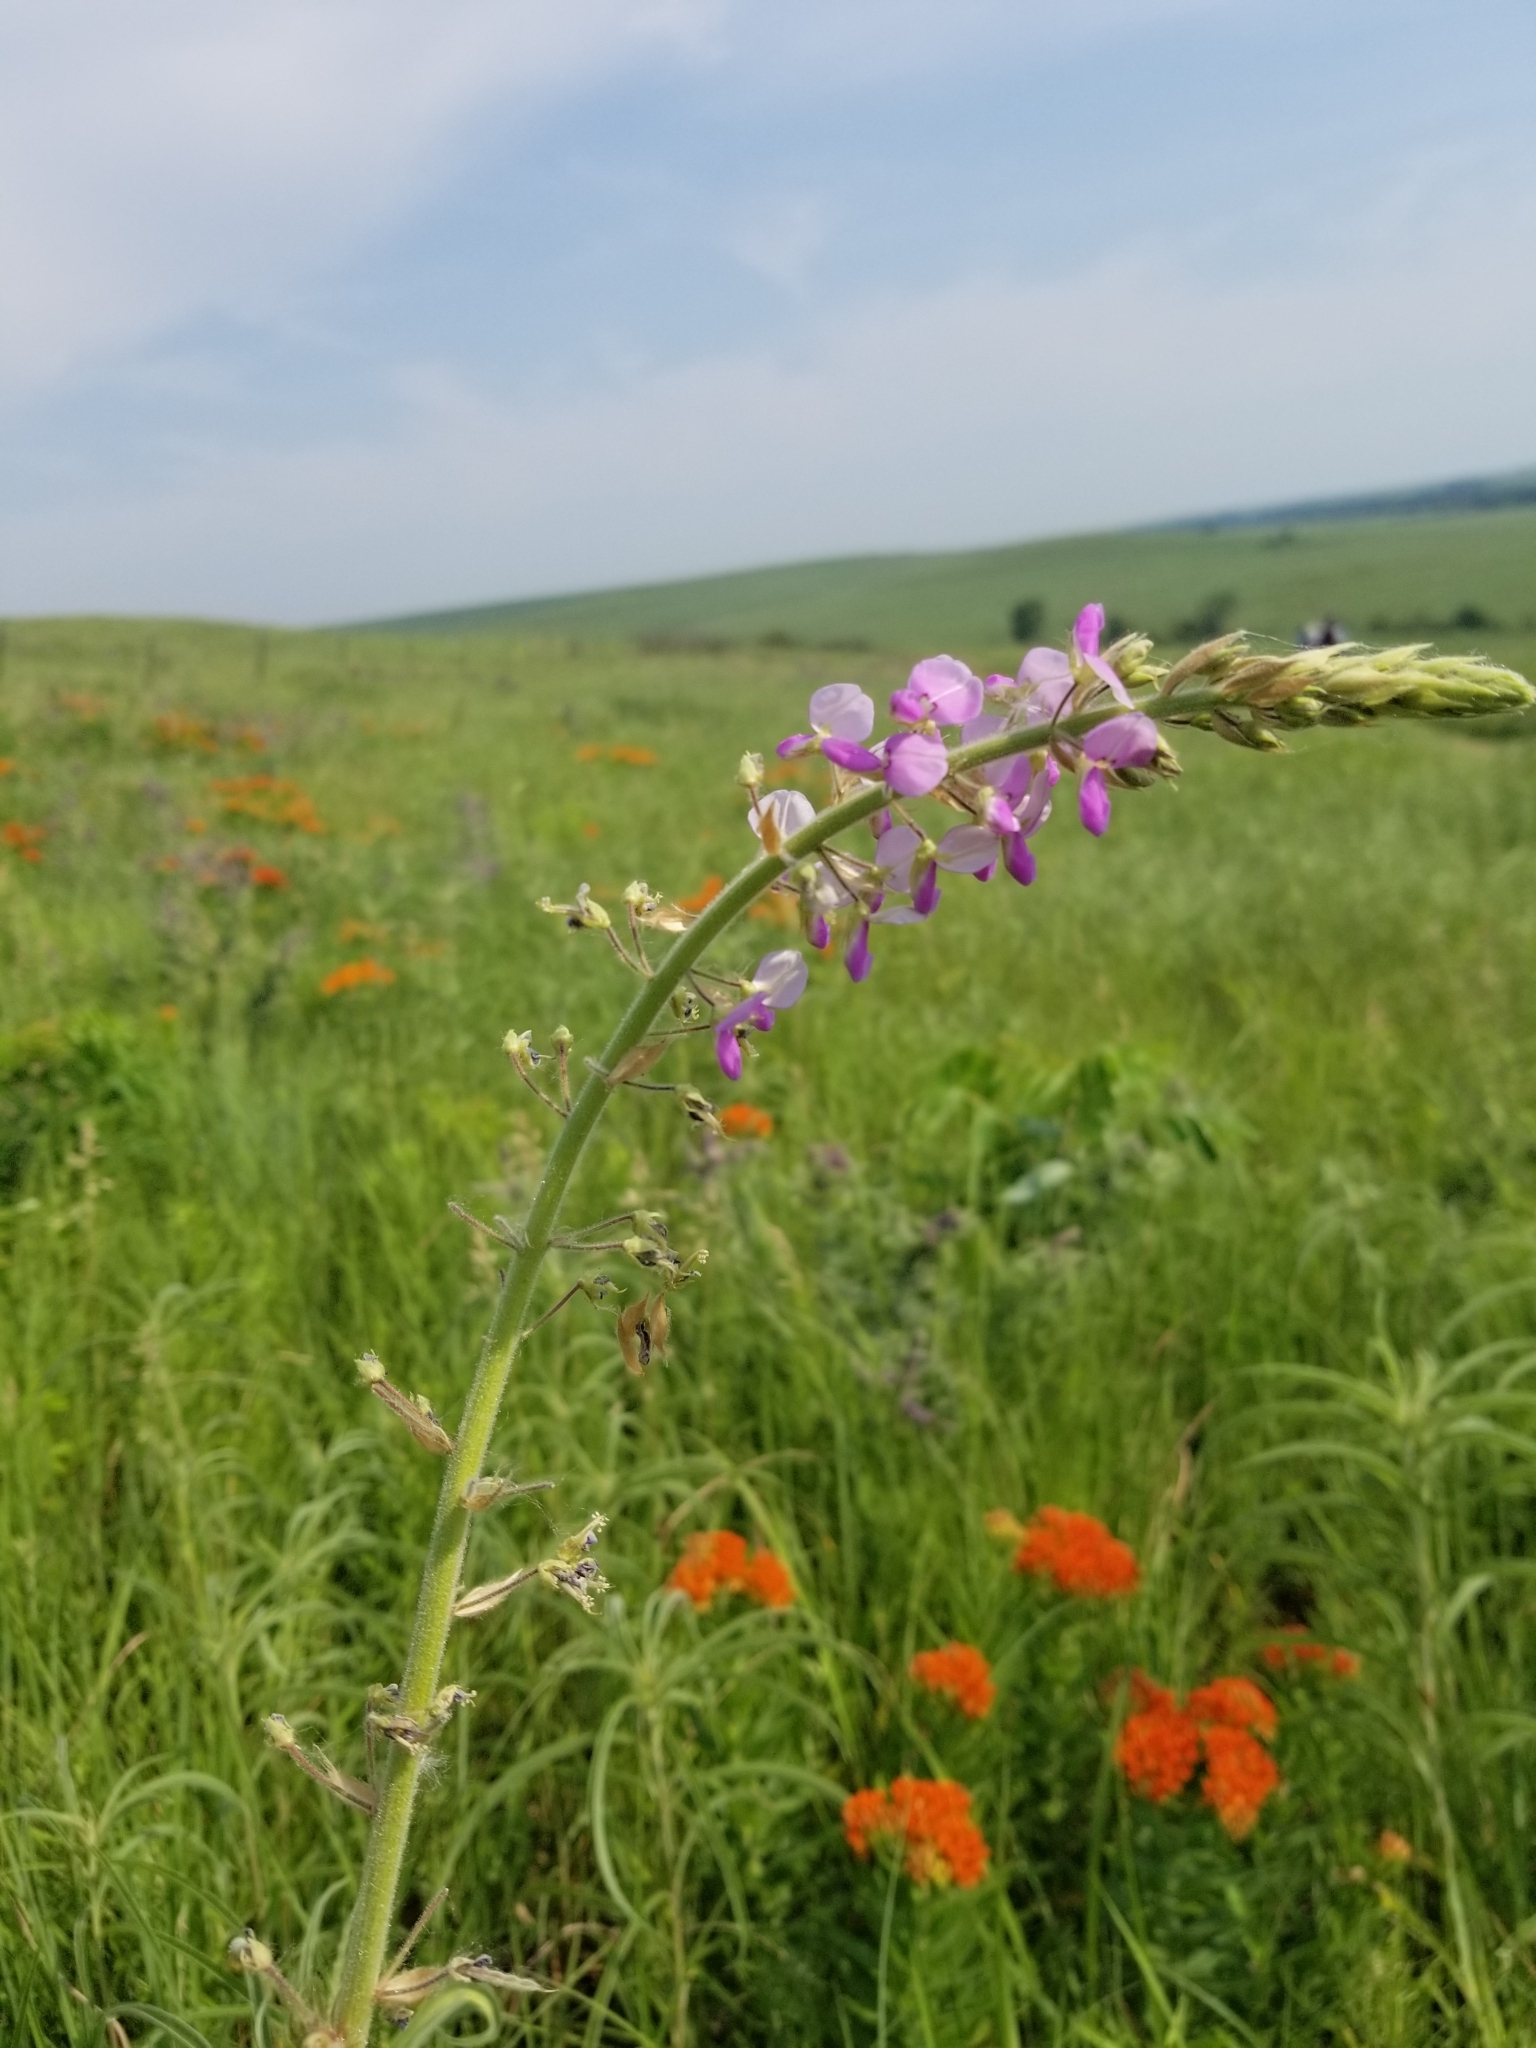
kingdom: Plantae
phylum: Tracheophyta
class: Magnoliopsida
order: Fabales
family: Fabaceae
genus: Desmodium
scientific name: Desmodium illinoense
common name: Illinois tick-clover
